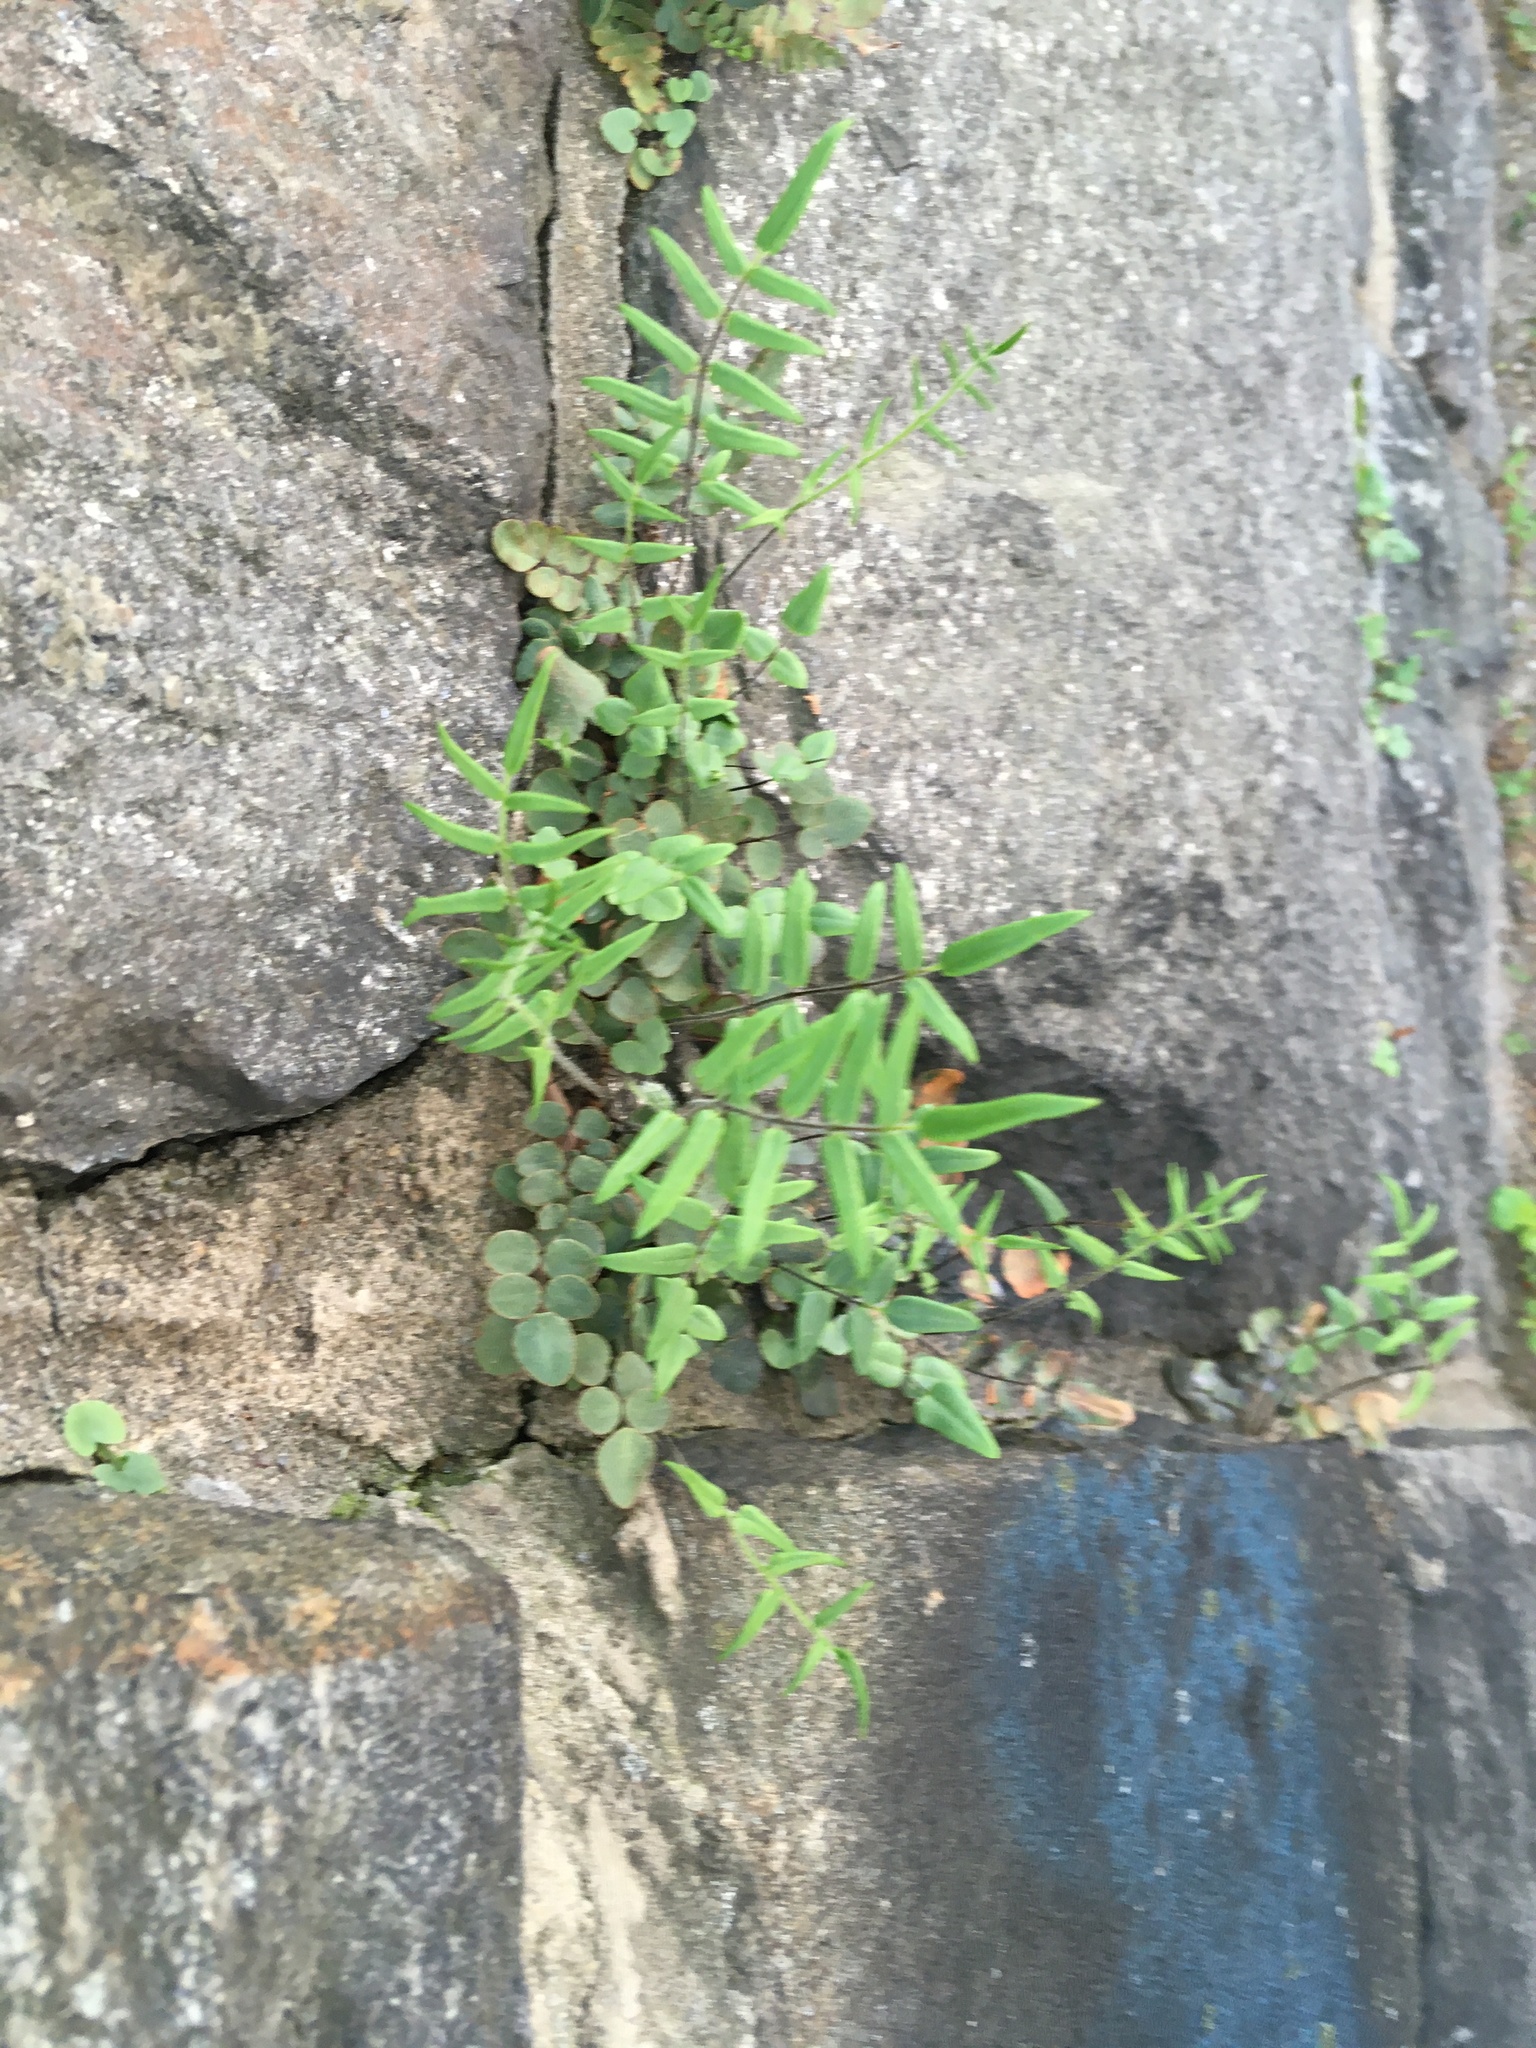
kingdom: Plantae
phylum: Tracheophyta
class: Polypodiopsida
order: Polypodiales
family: Pteridaceae
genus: Pellaea
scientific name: Pellaea atropurpurea
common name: Hairy cliffbrake
